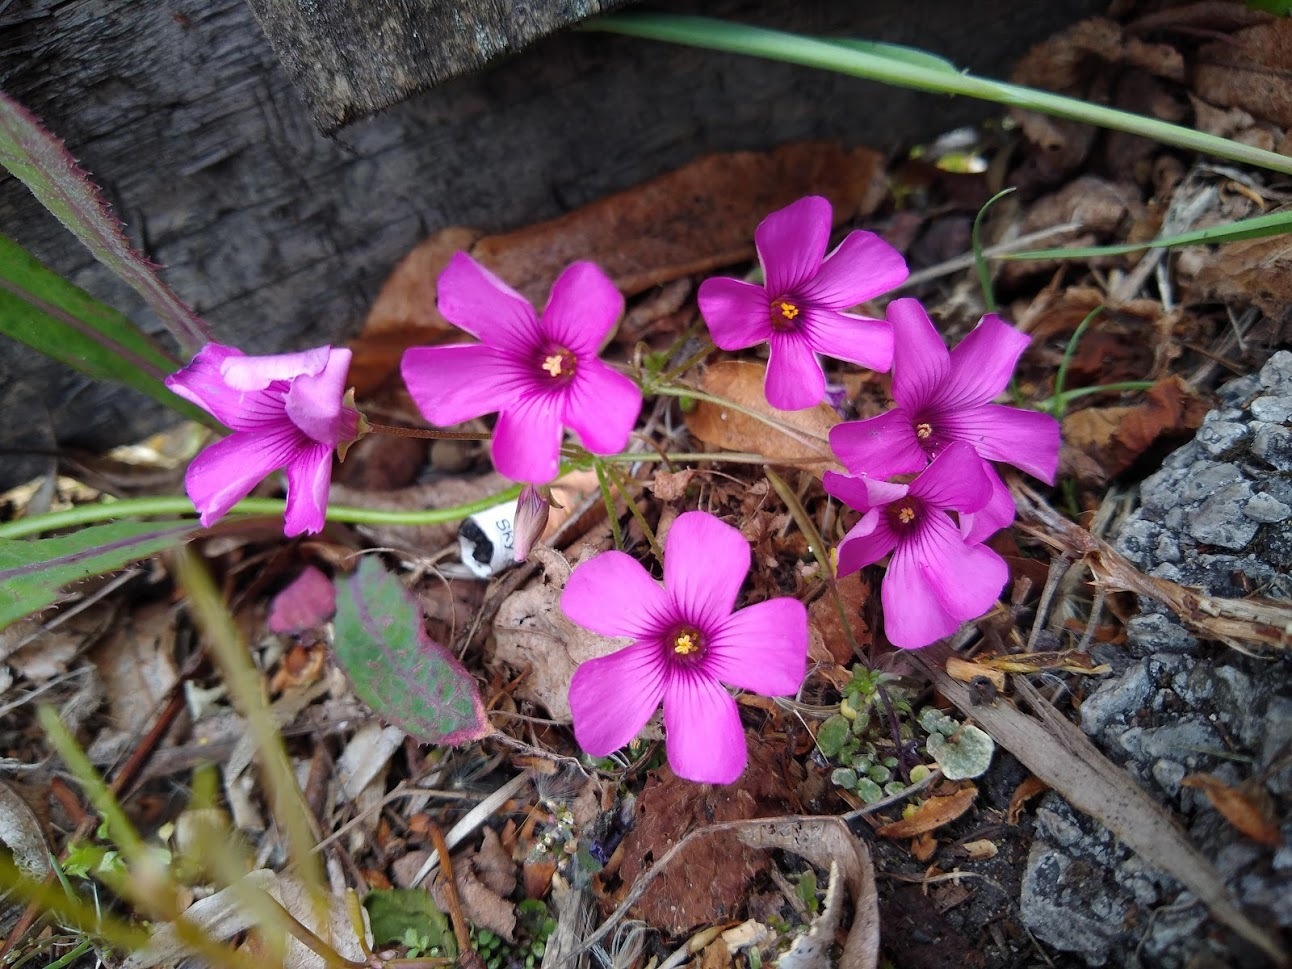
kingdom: Plantae
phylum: Tracheophyta
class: Magnoliopsida
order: Oxalidales
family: Oxalidaceae
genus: Oxalis
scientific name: Oxalis articulata
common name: Pink-sorrel
